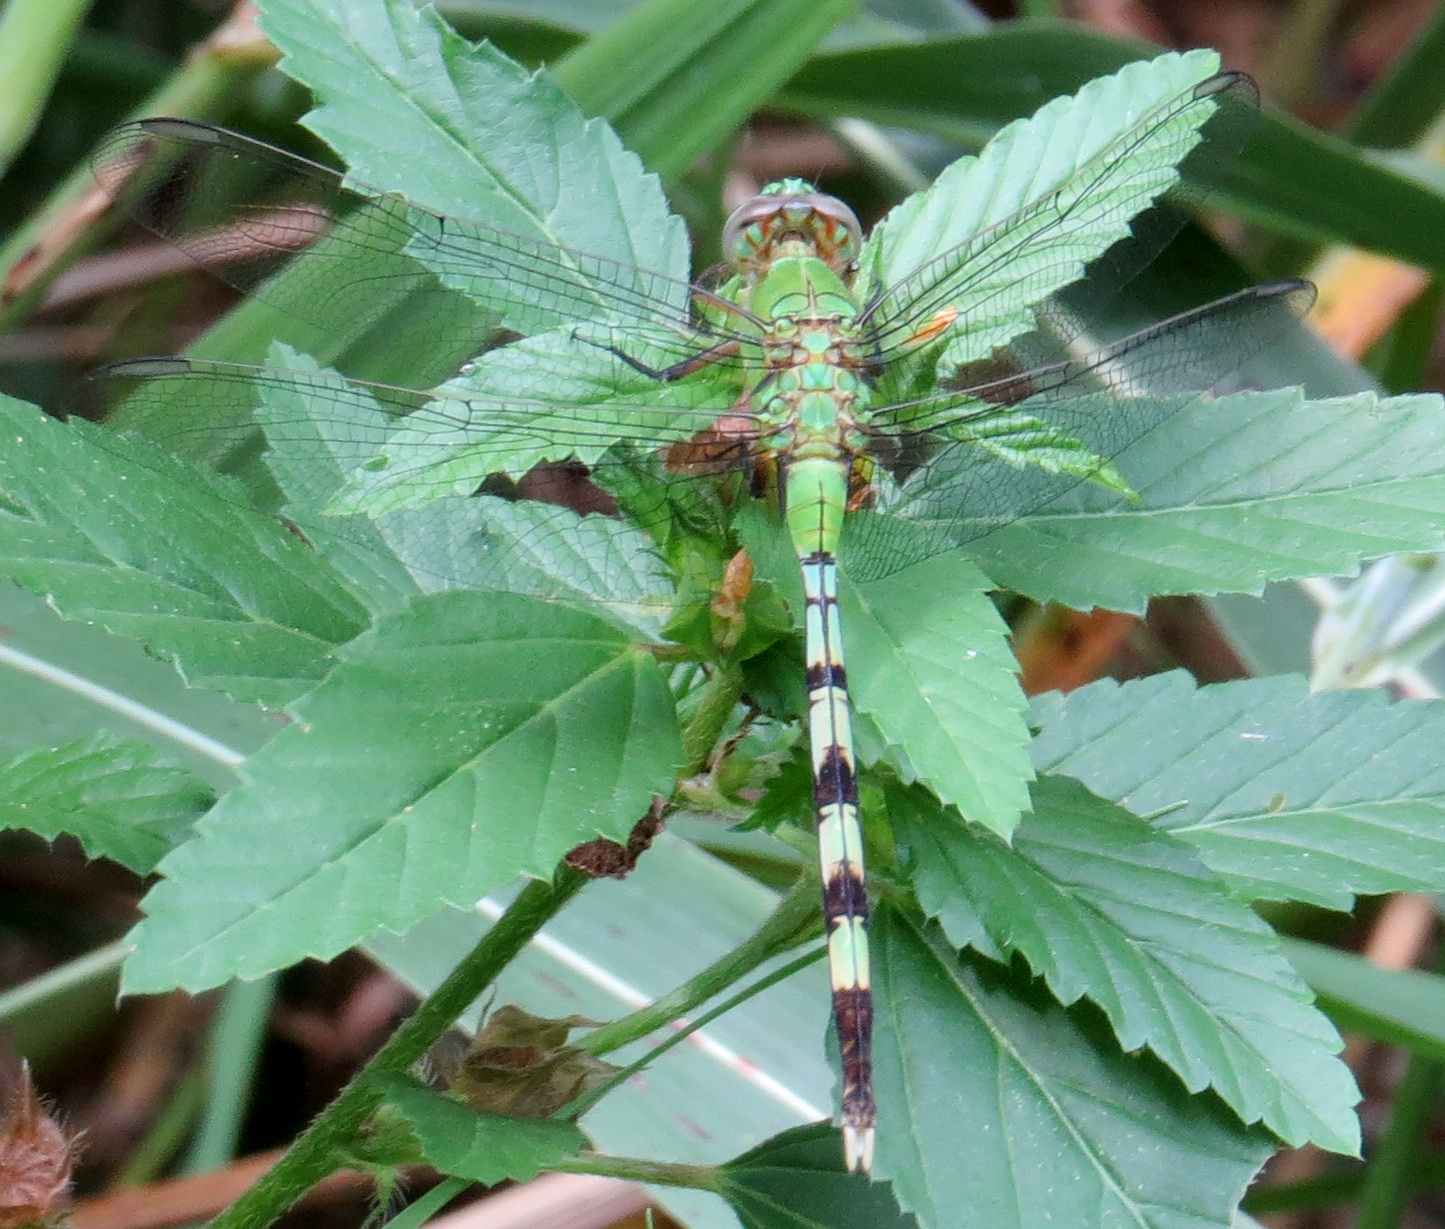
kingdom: Animalia
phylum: Arthropoda
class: Insecta
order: Odonata
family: Libellulidae
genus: Erythemis
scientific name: Erythemis vesiculosa
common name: Great pondhawk
